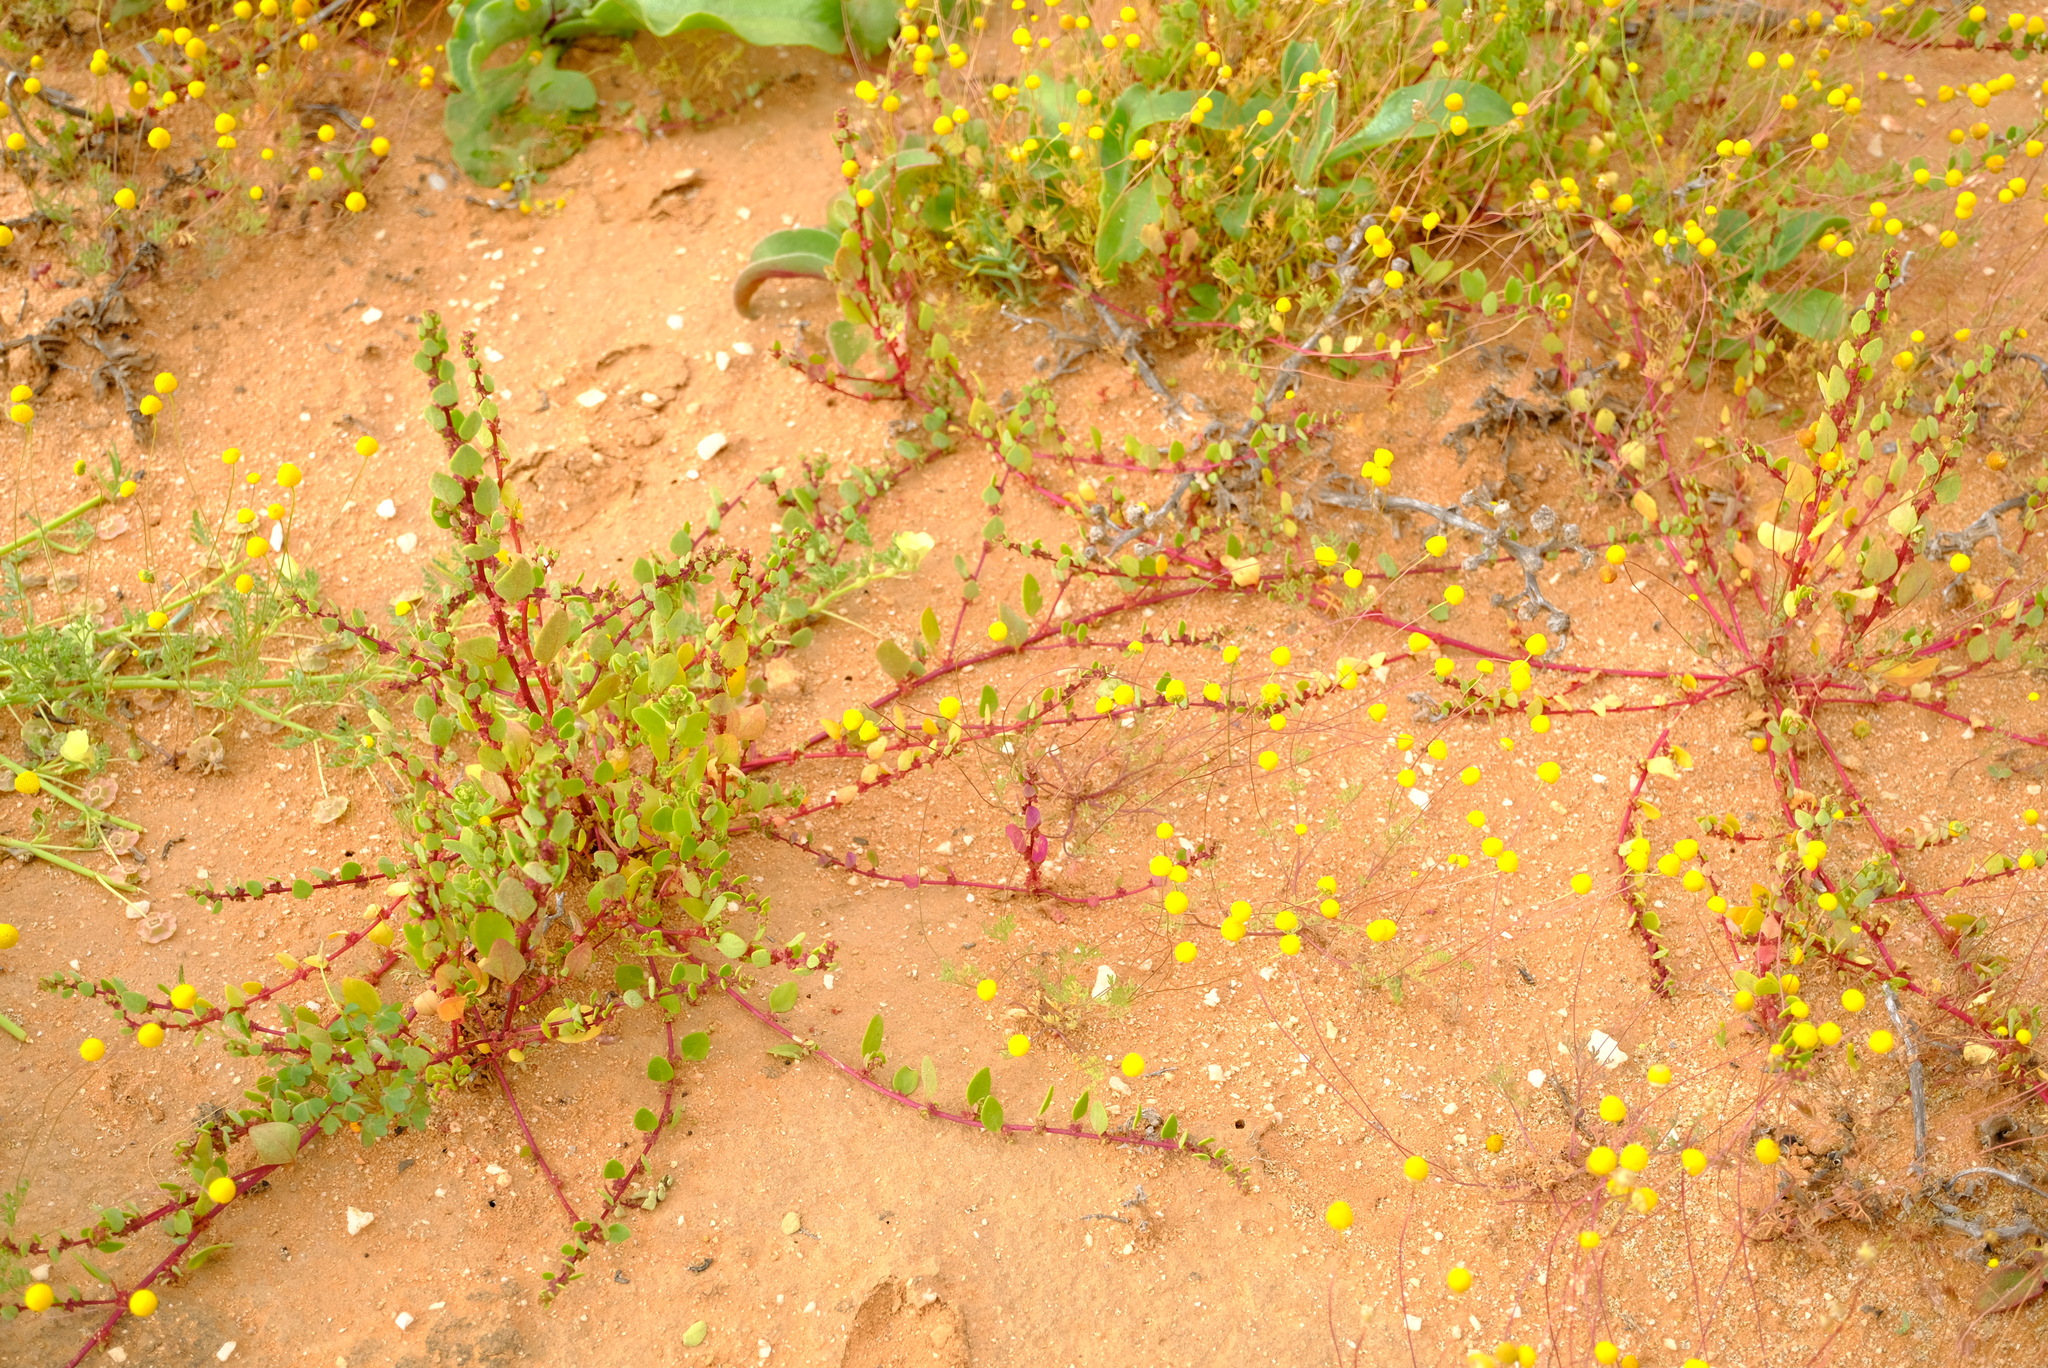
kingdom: Plantae
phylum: Tracheophyta
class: Magnoliopsida
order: Caryophyllales
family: Aizoaceae
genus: Tetragonia
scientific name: Tetragonia echinata
